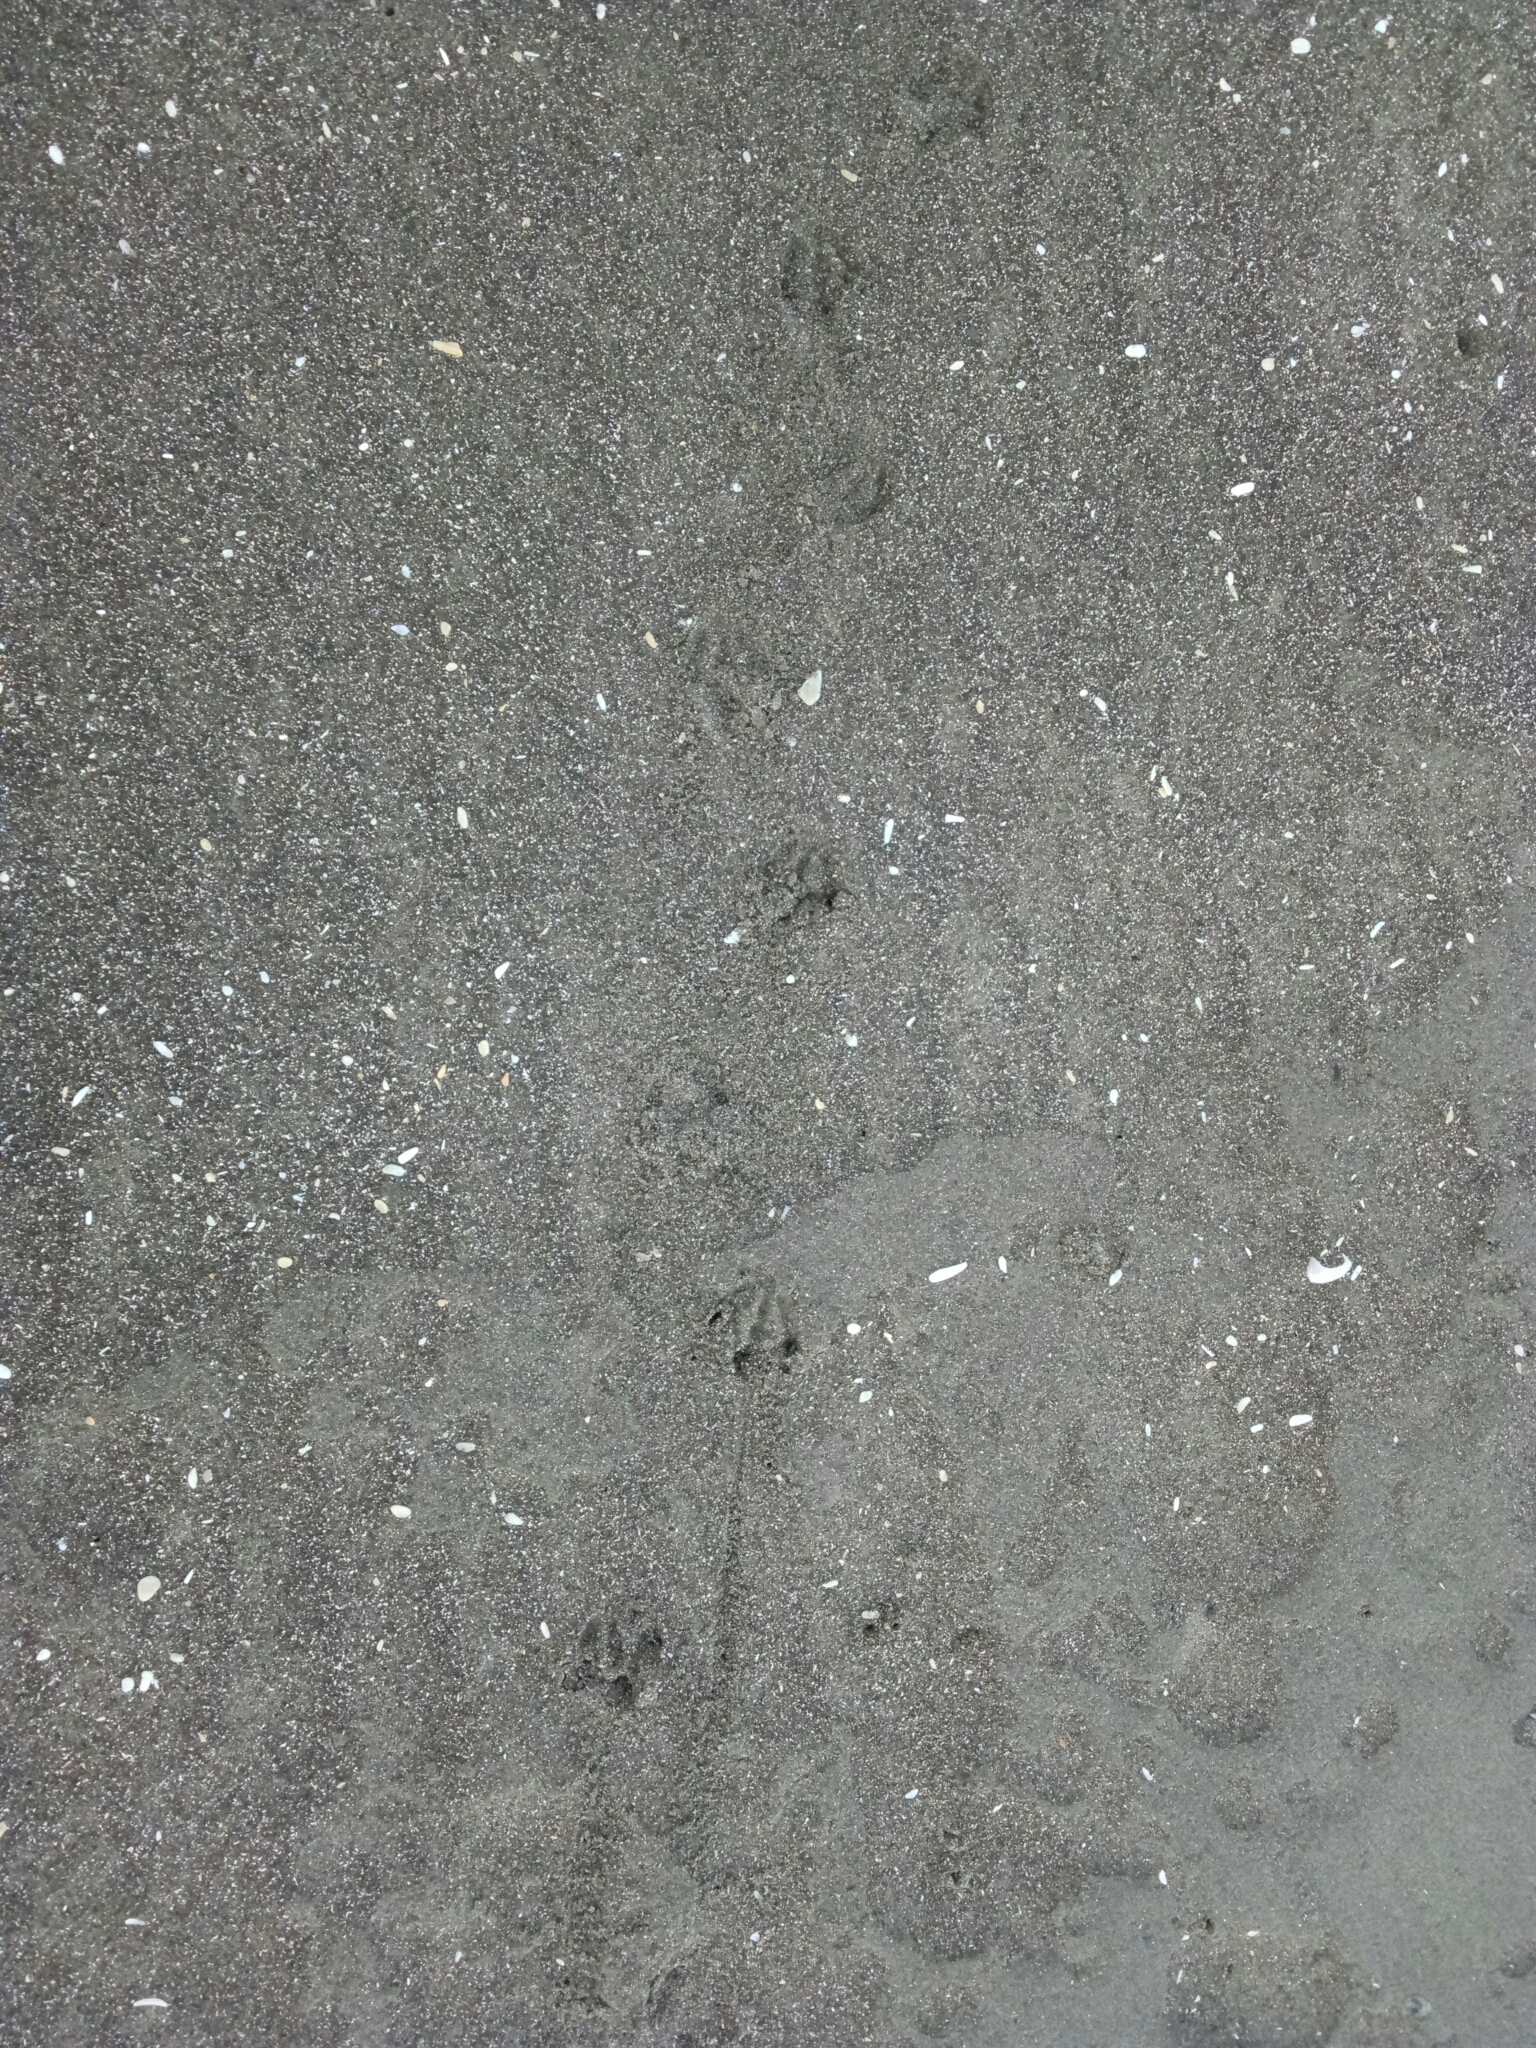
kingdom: Animalia
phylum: Chordata
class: Aves
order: Sphenisciformes
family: Spheniscidae
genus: Eudyptula
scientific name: Eudyptula minor
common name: Little penguin
